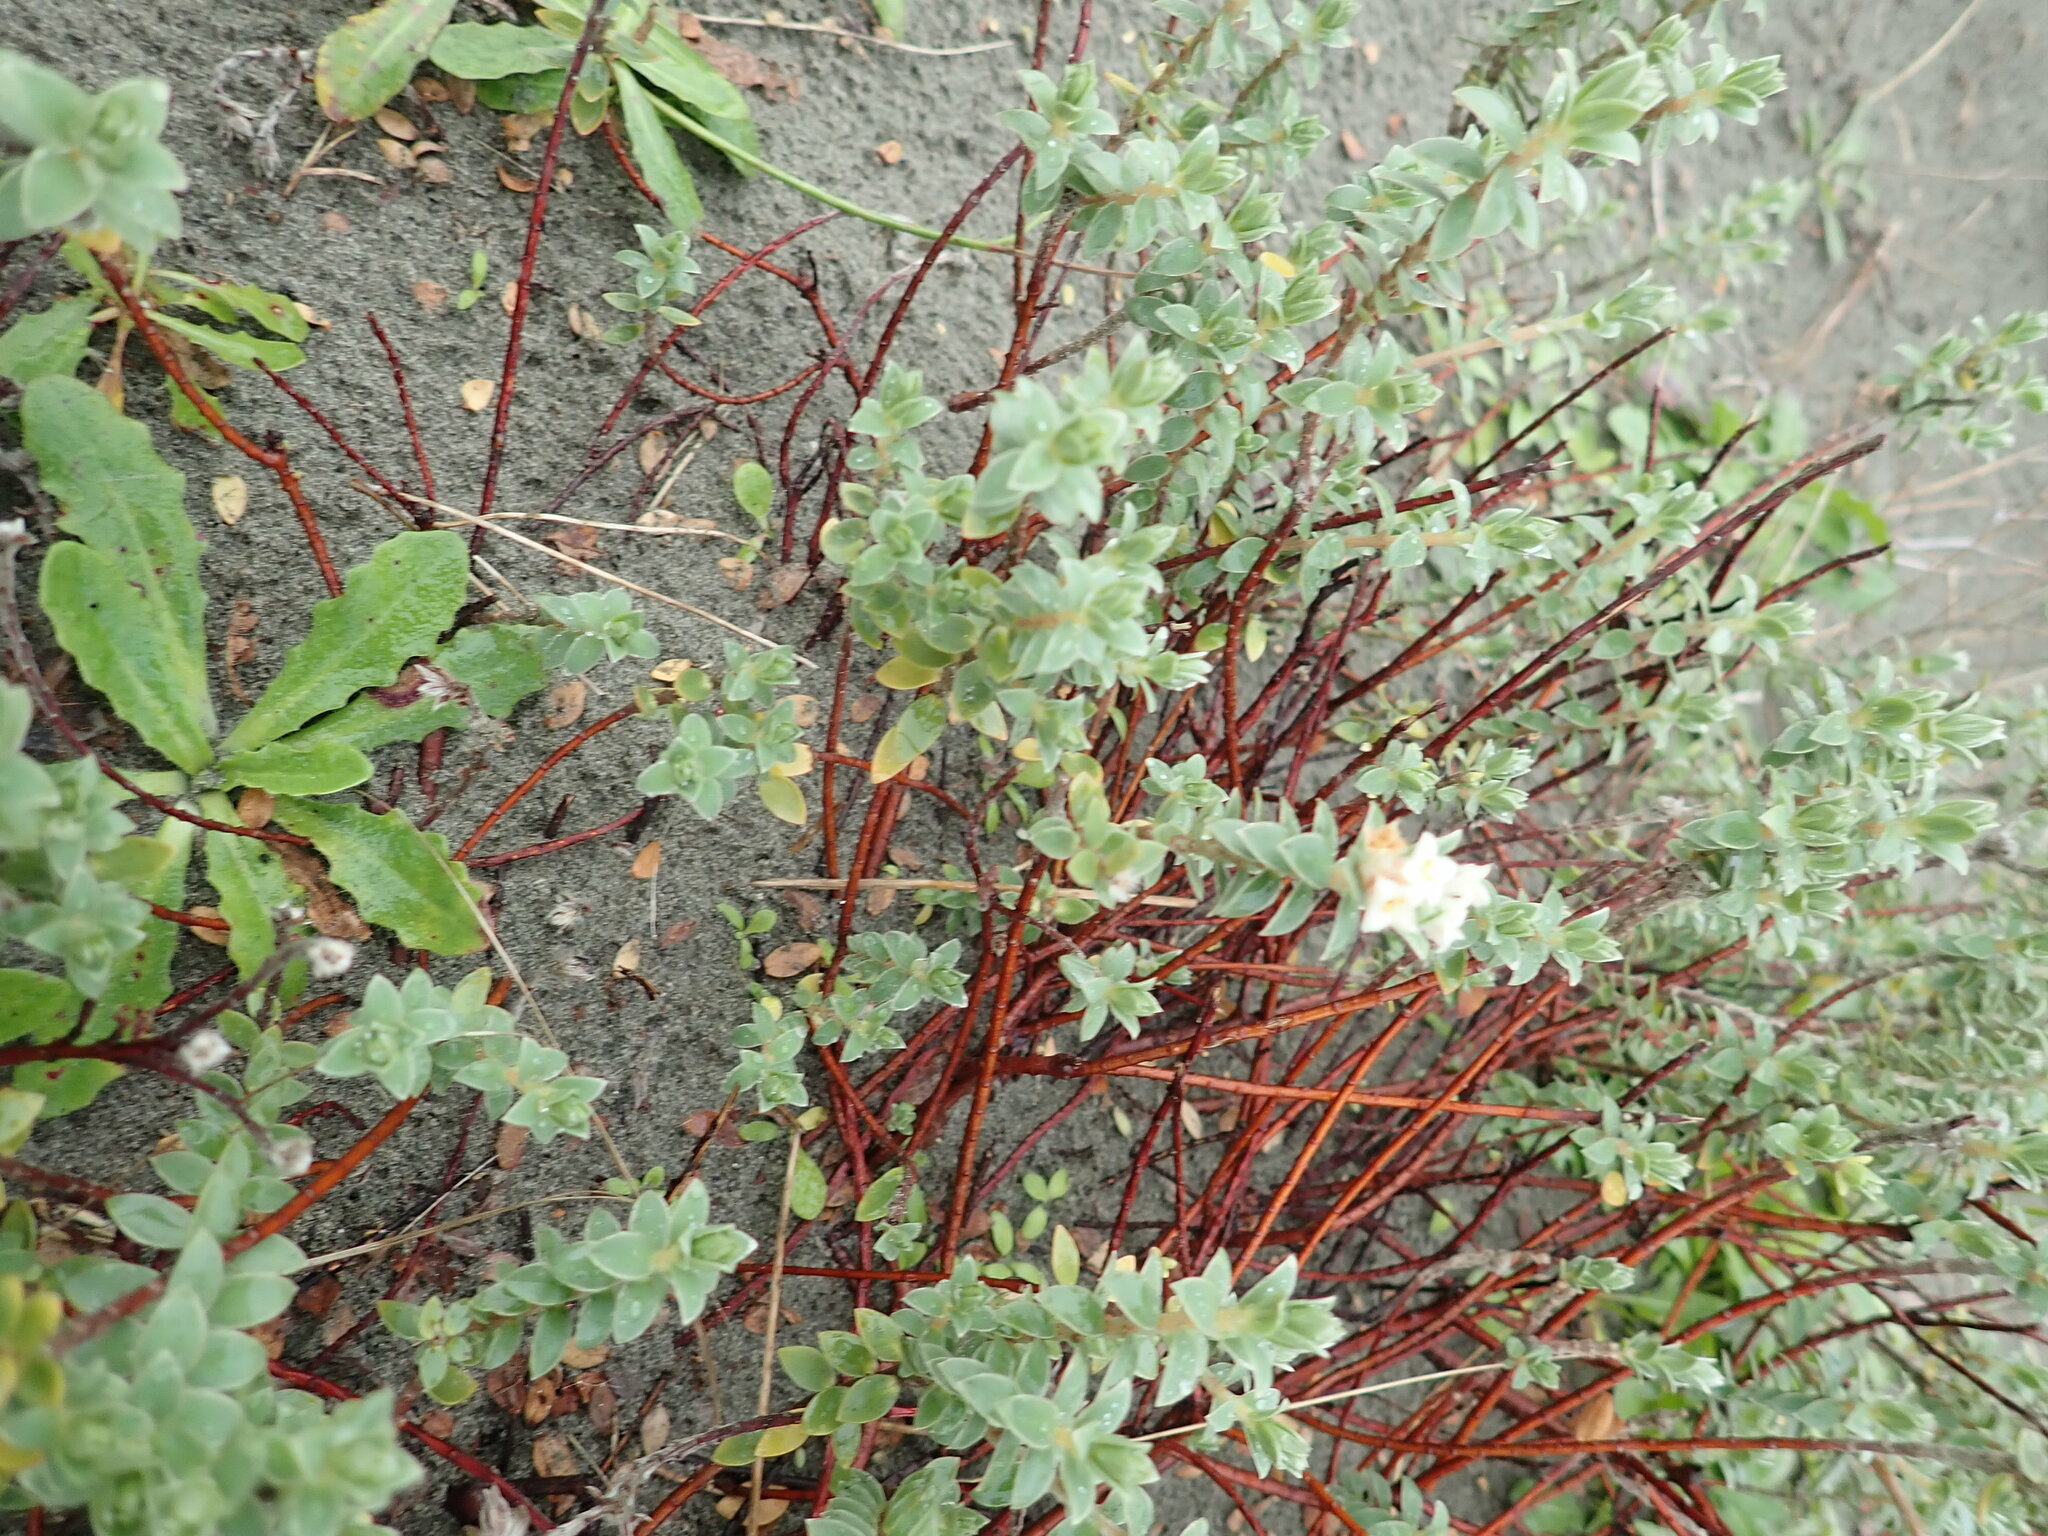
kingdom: Plantae
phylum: Tracheophyta
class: Magnoliopsida
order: Malvales
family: Thymelaeaceae
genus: Pimelea
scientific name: Pimelea villosa
